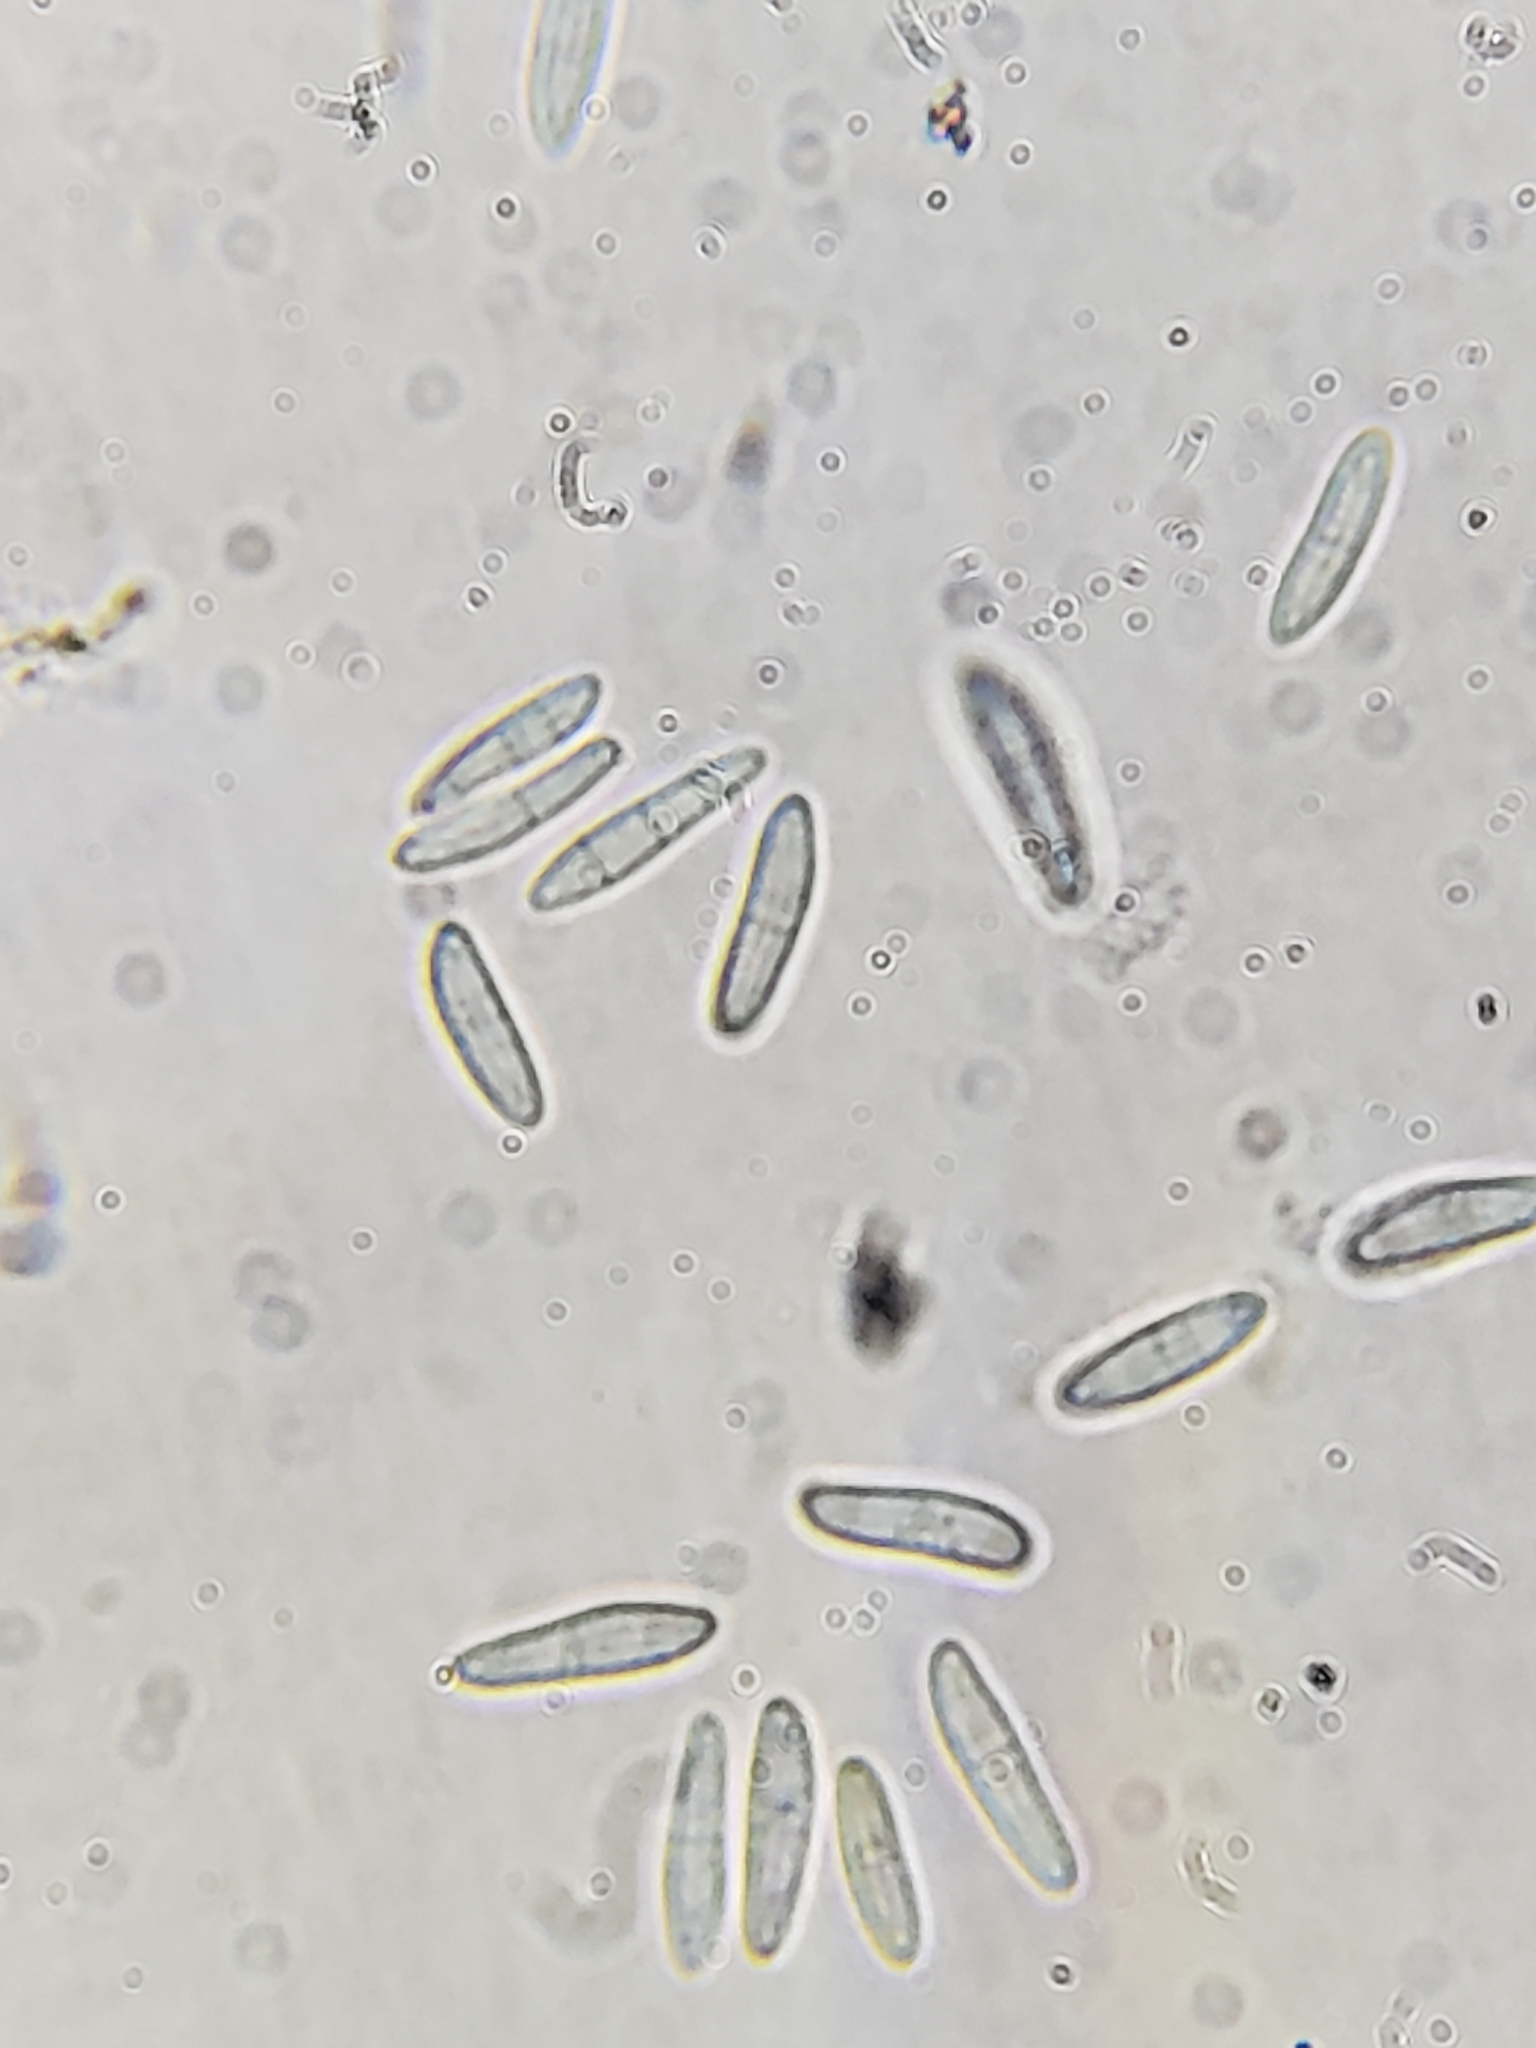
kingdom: Fungi
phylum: Ascomycota
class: Leotiomycetes
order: Helotiales
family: Arachnopezizaceae
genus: Arachnopeziza
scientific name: Arachnopeziza trabinelloides
